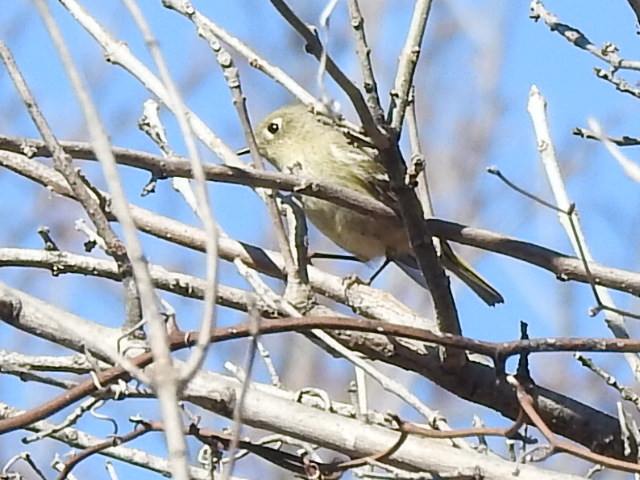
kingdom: Animalia
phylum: Chordata
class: Aves
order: Passeriformes
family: Regulidae
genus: Regulus
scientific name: Regulus calendula
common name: Ruby-crowned kinglet
